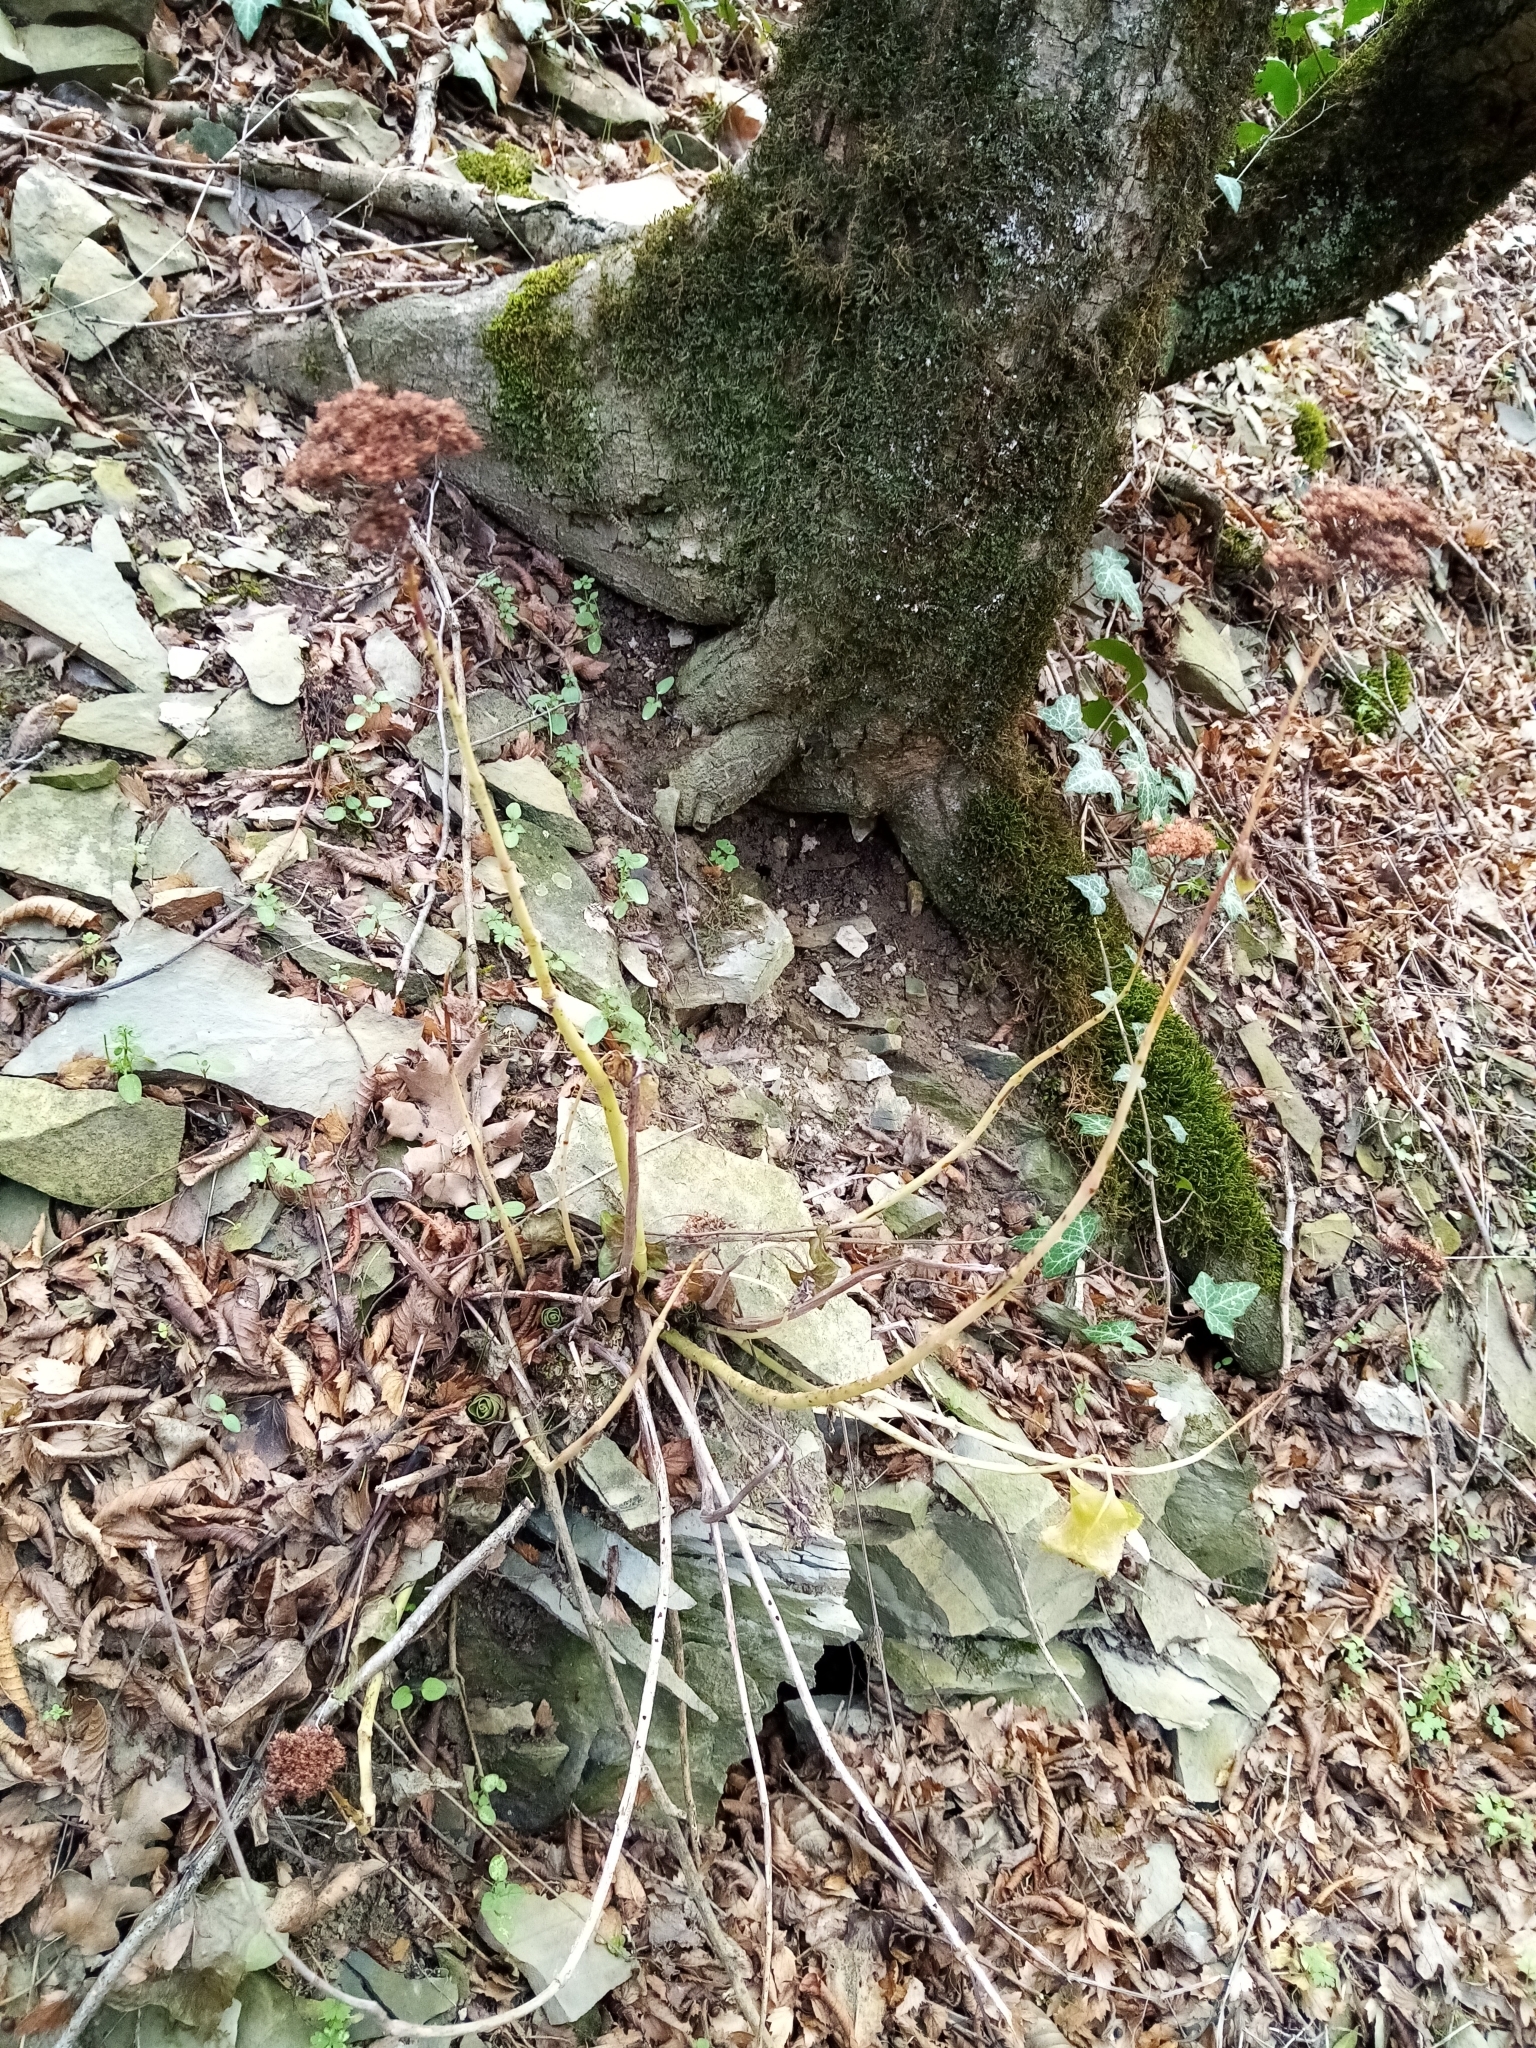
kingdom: Plantae
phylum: Tracheophyta
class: Magnoliopsida
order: Saxifragales
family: Crassulaceae
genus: Hylotelephium
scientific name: Hylotelephium maximum
